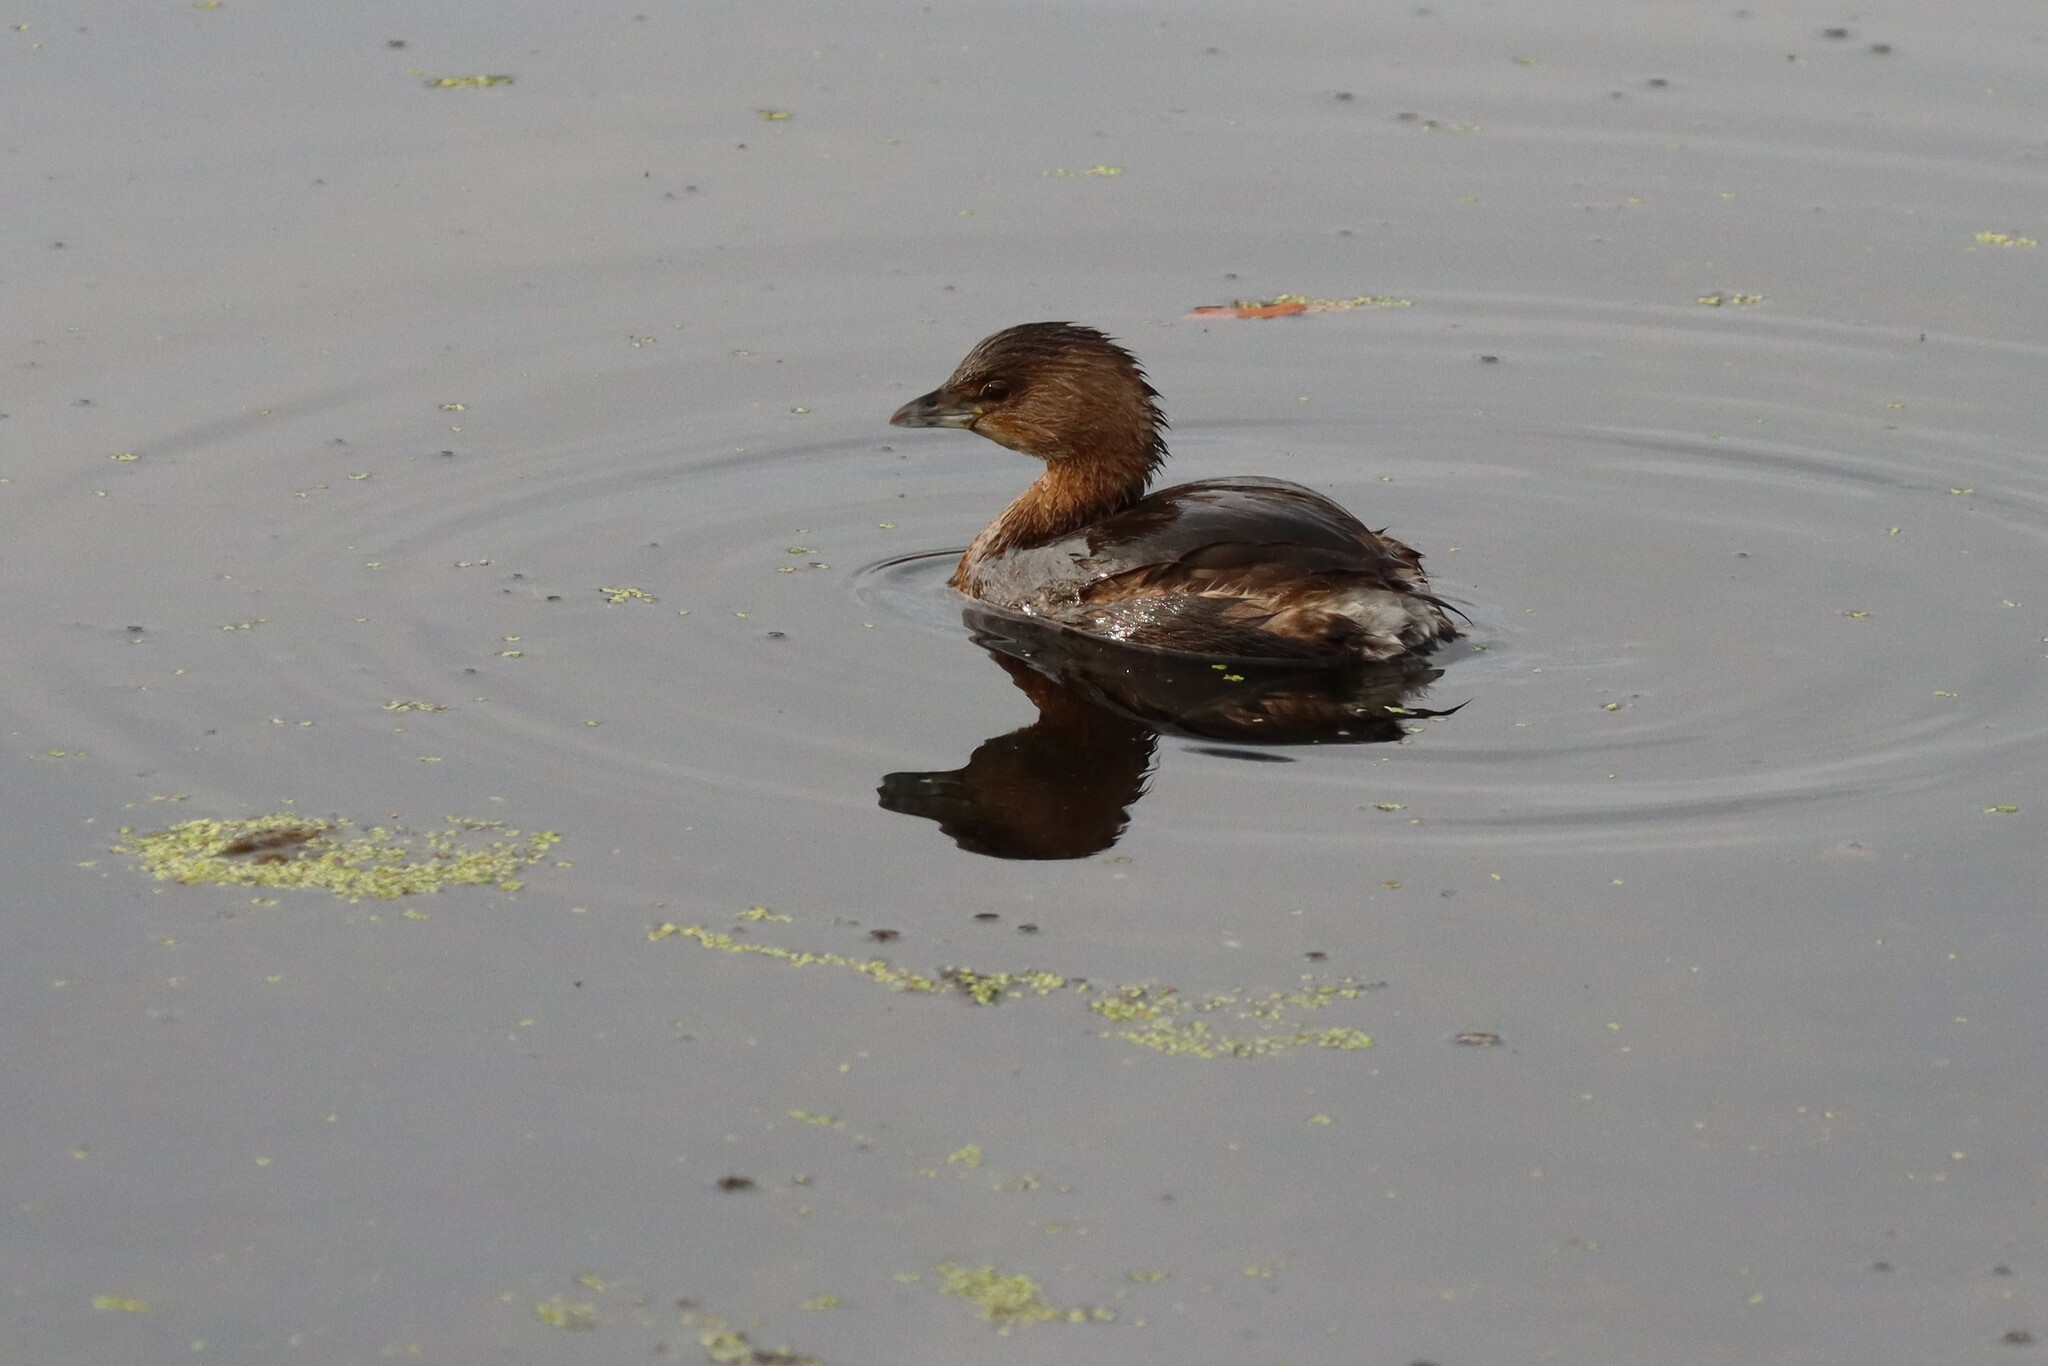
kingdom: Animalia
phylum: Chordata
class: Aves
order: Podicipediformes
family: Podicipedidae
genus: Podilymbus
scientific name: Podilymbus podiceps
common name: Pied-billed grebe
